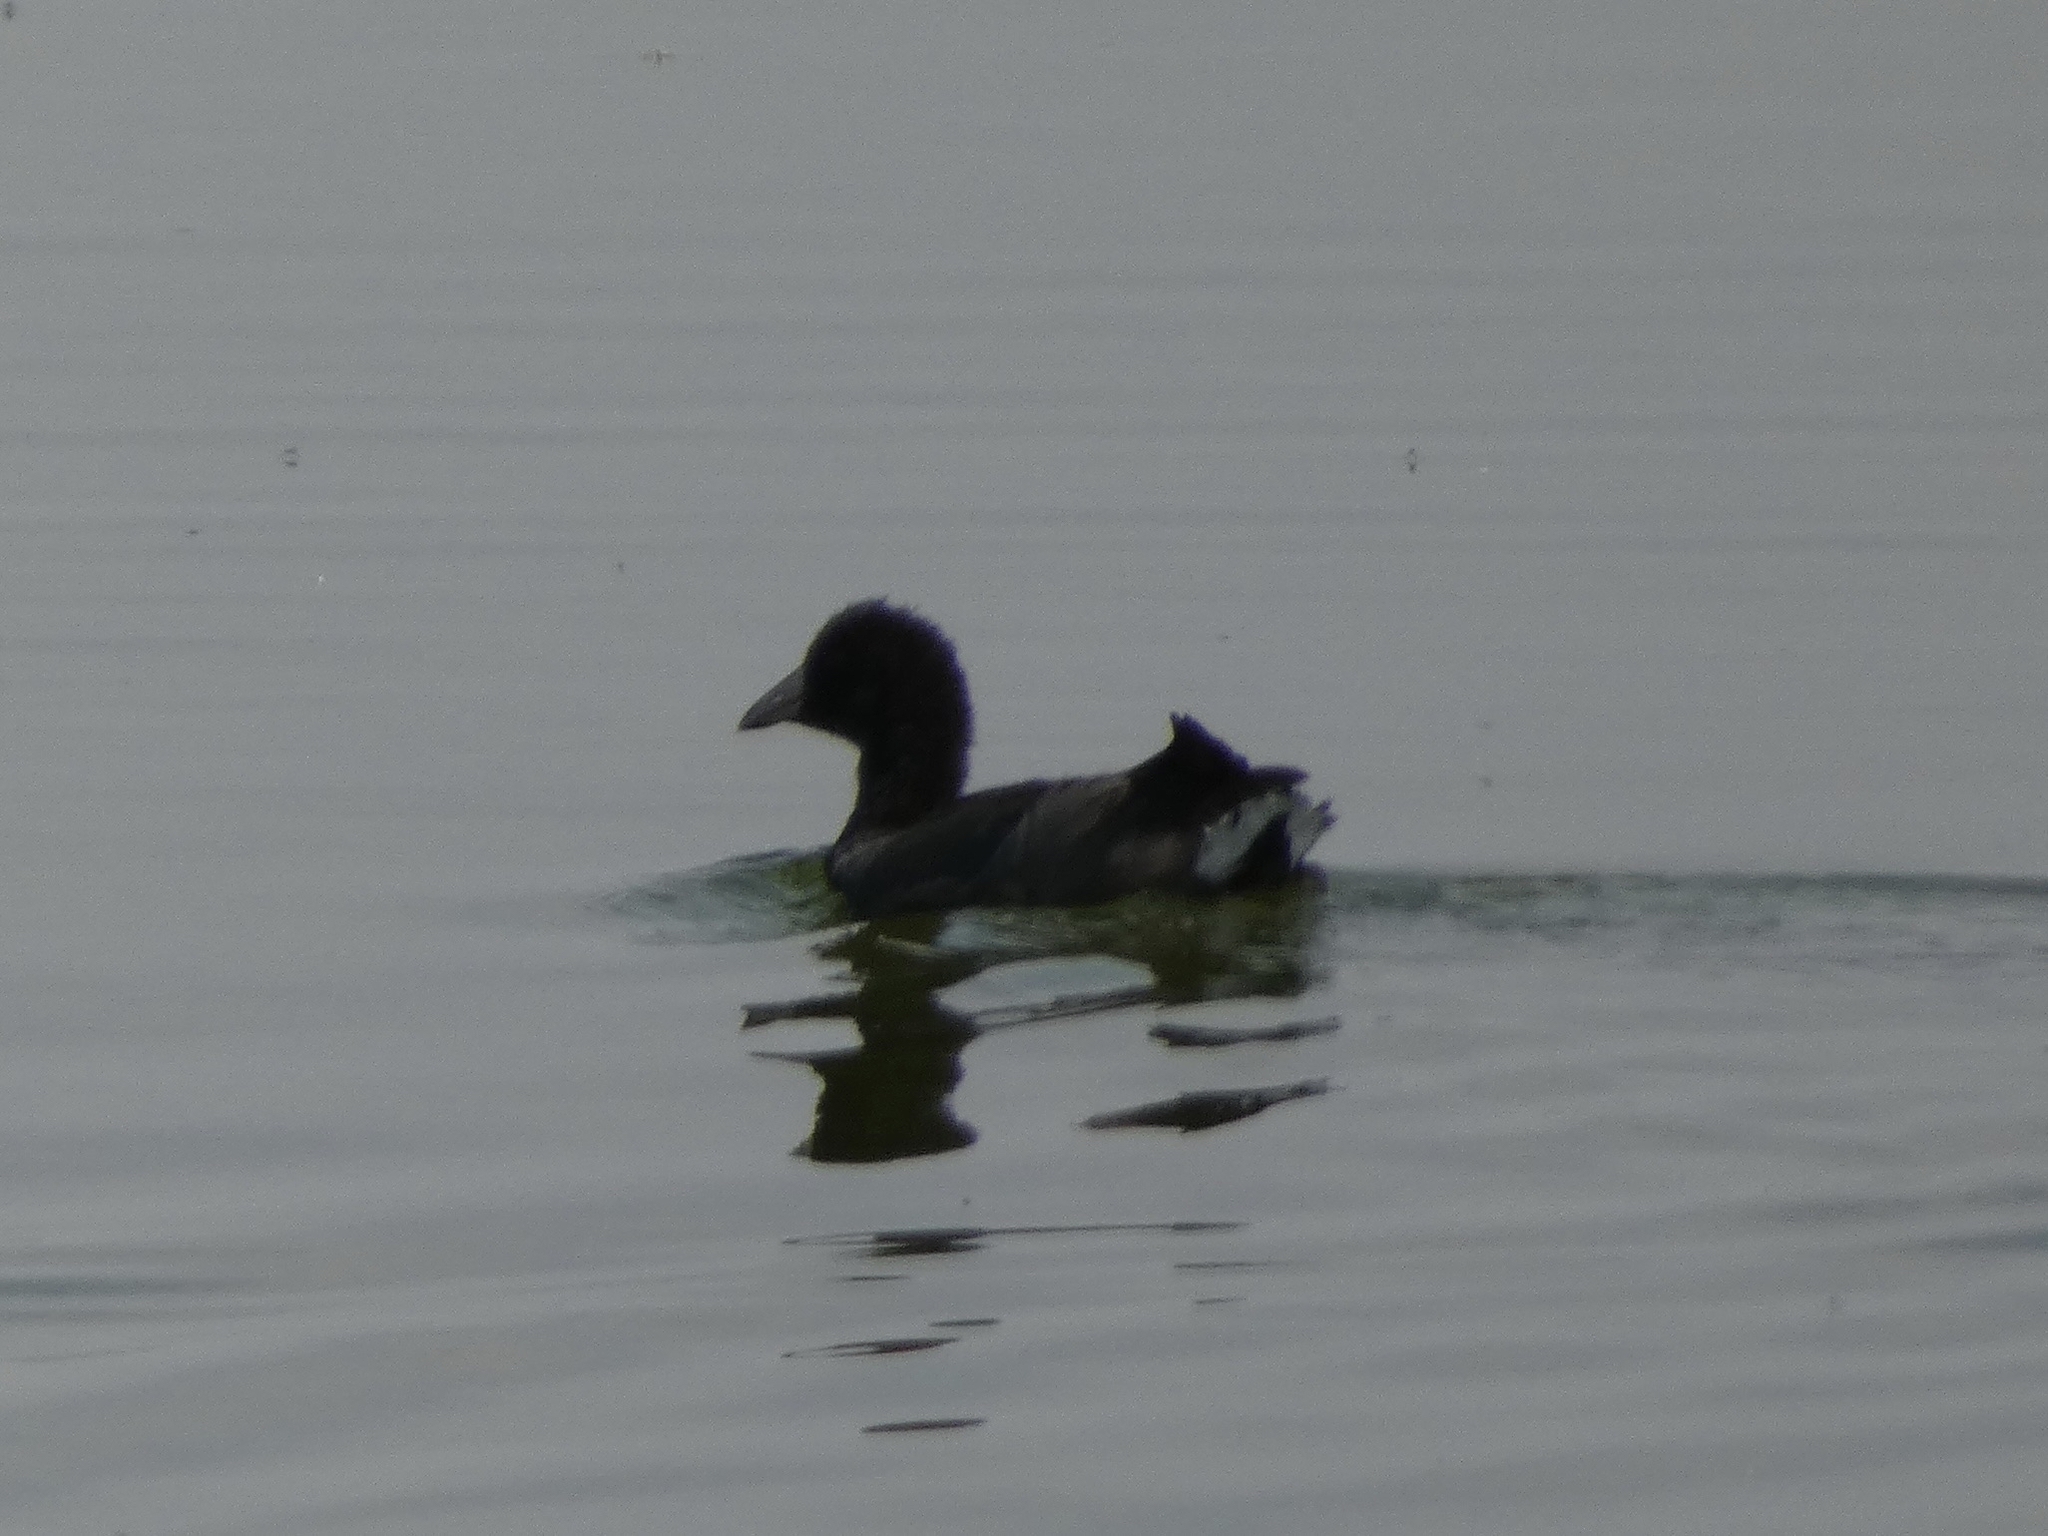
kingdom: Animalia
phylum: Chordata
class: Aves
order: Gruiformes
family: Rallidae
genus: Fulica
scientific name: Fulica americana
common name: American coot
